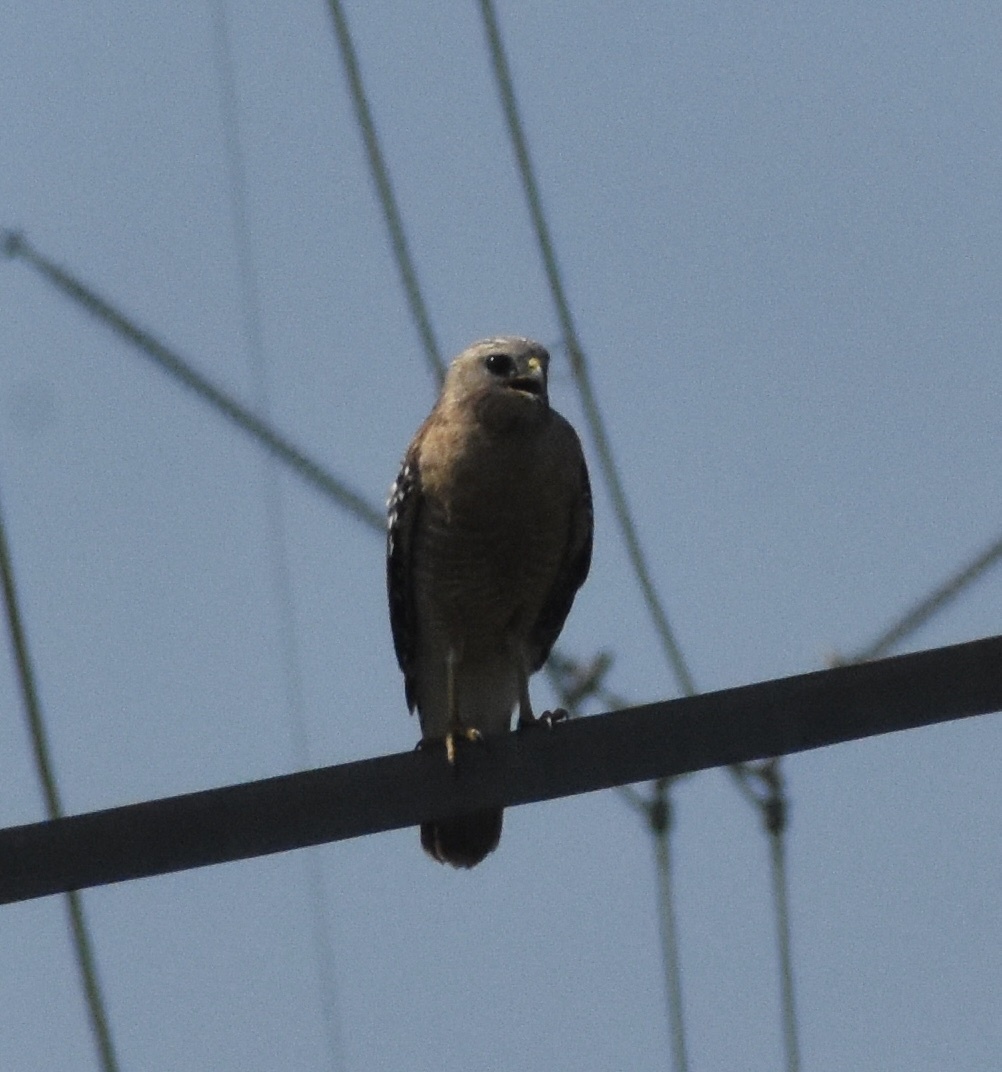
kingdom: Animalia
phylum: Chordata
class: Aves
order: Accipitriformes
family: Accipitridae
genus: Buteo
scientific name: Buteo lineatus
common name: Red-shouldered hawk
